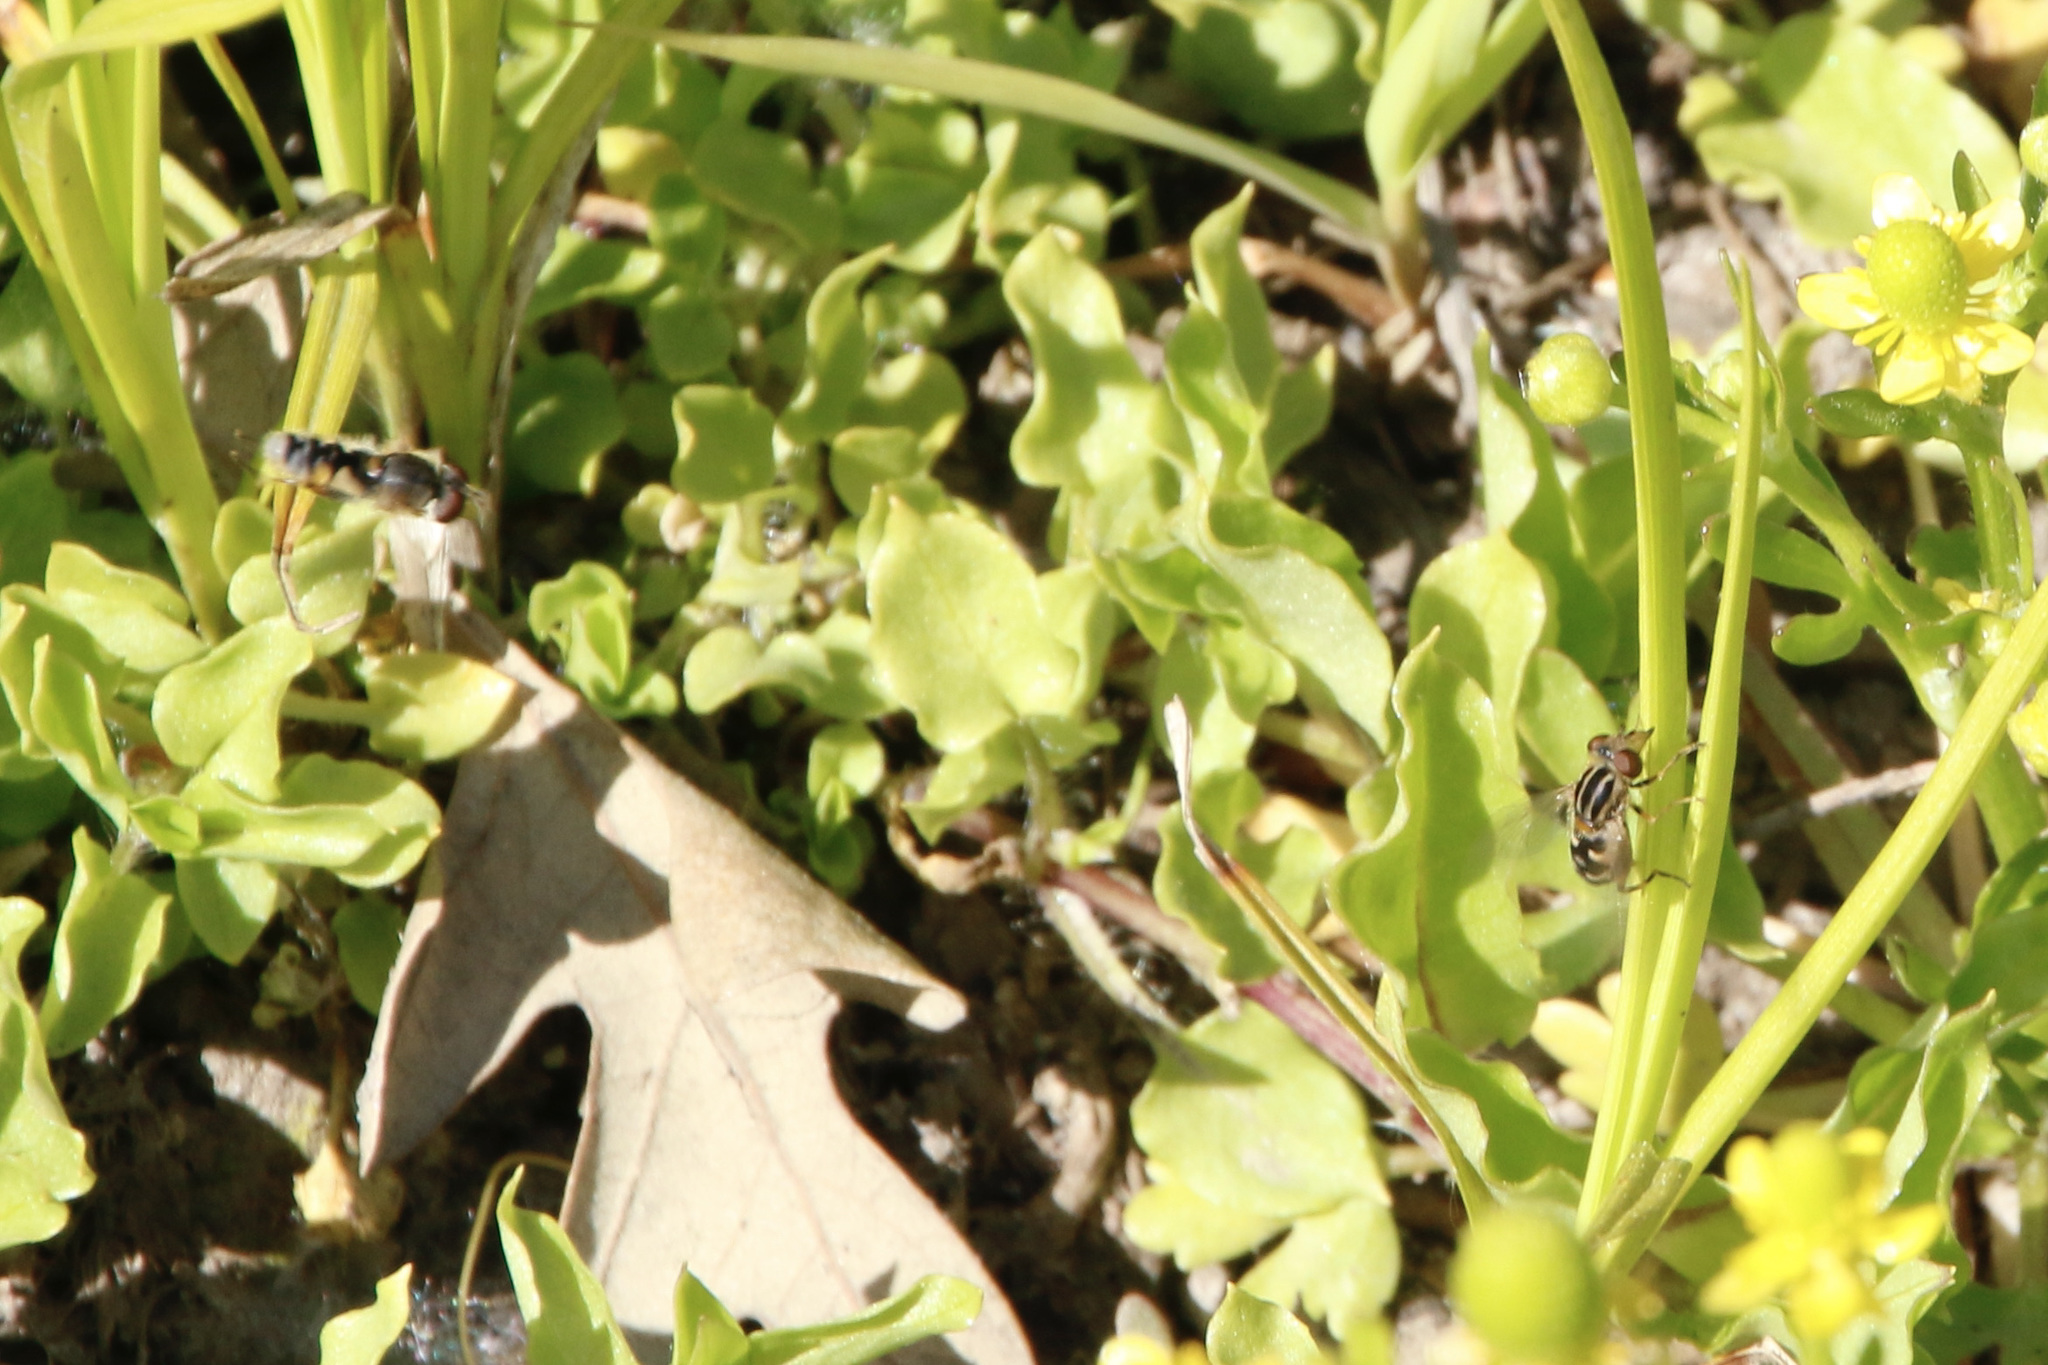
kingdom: Animalia
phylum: Arthropoda
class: Insecta
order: Diptera
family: Syrphidae
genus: Eurimyia
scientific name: Eurimyia stipatus
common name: Long-nosed swamp fly
